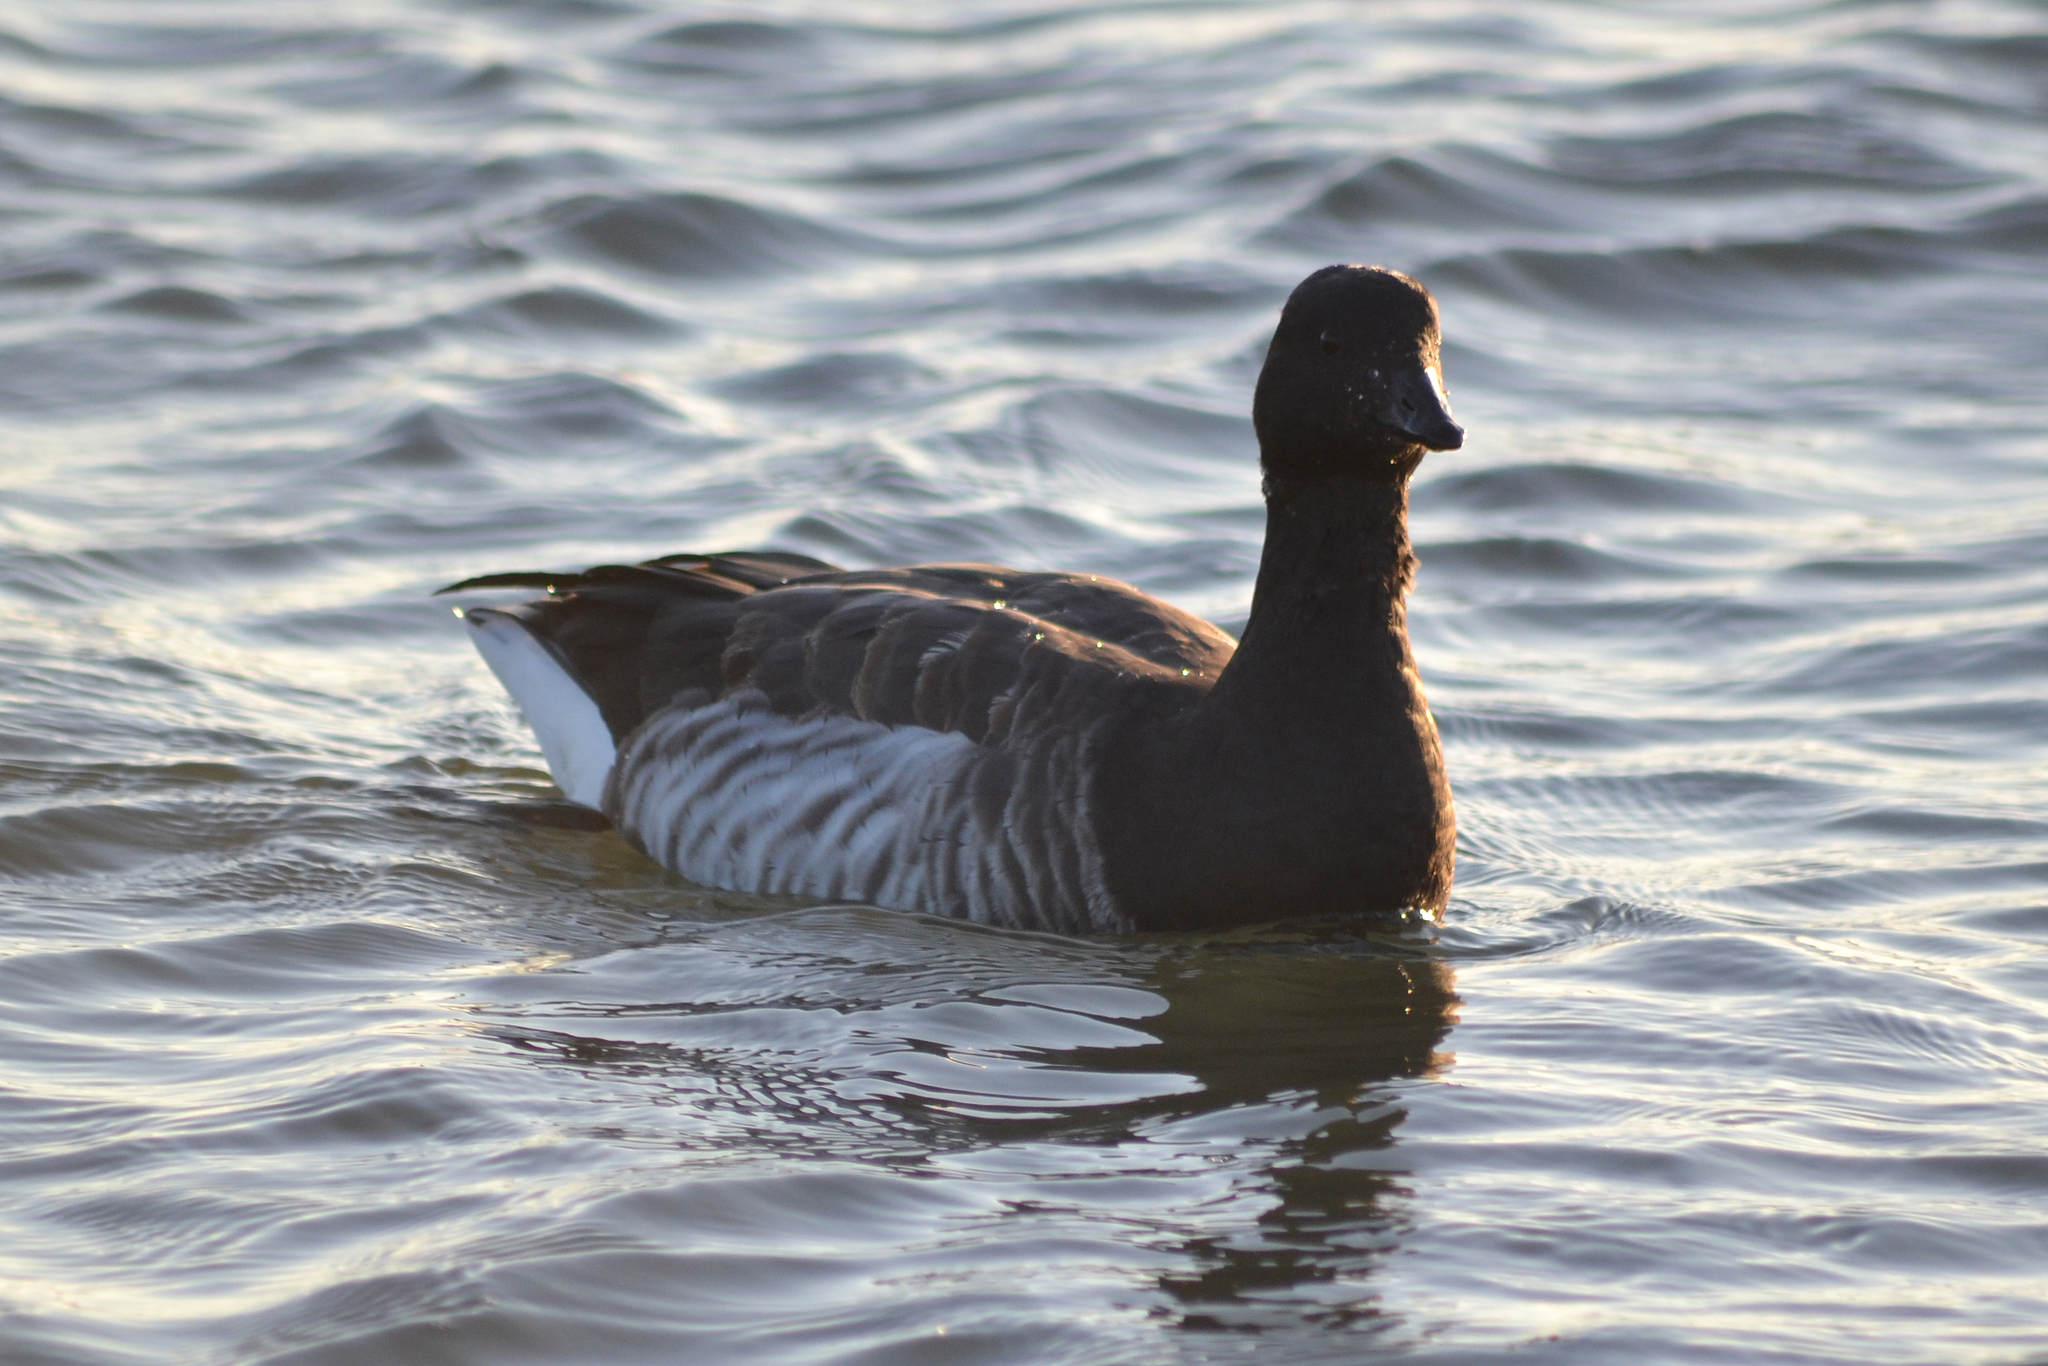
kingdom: Animalia
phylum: Chordata
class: Aves
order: Anseriformes
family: Anatidae
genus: Branta
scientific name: Branta bernicla
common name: Brant goose
